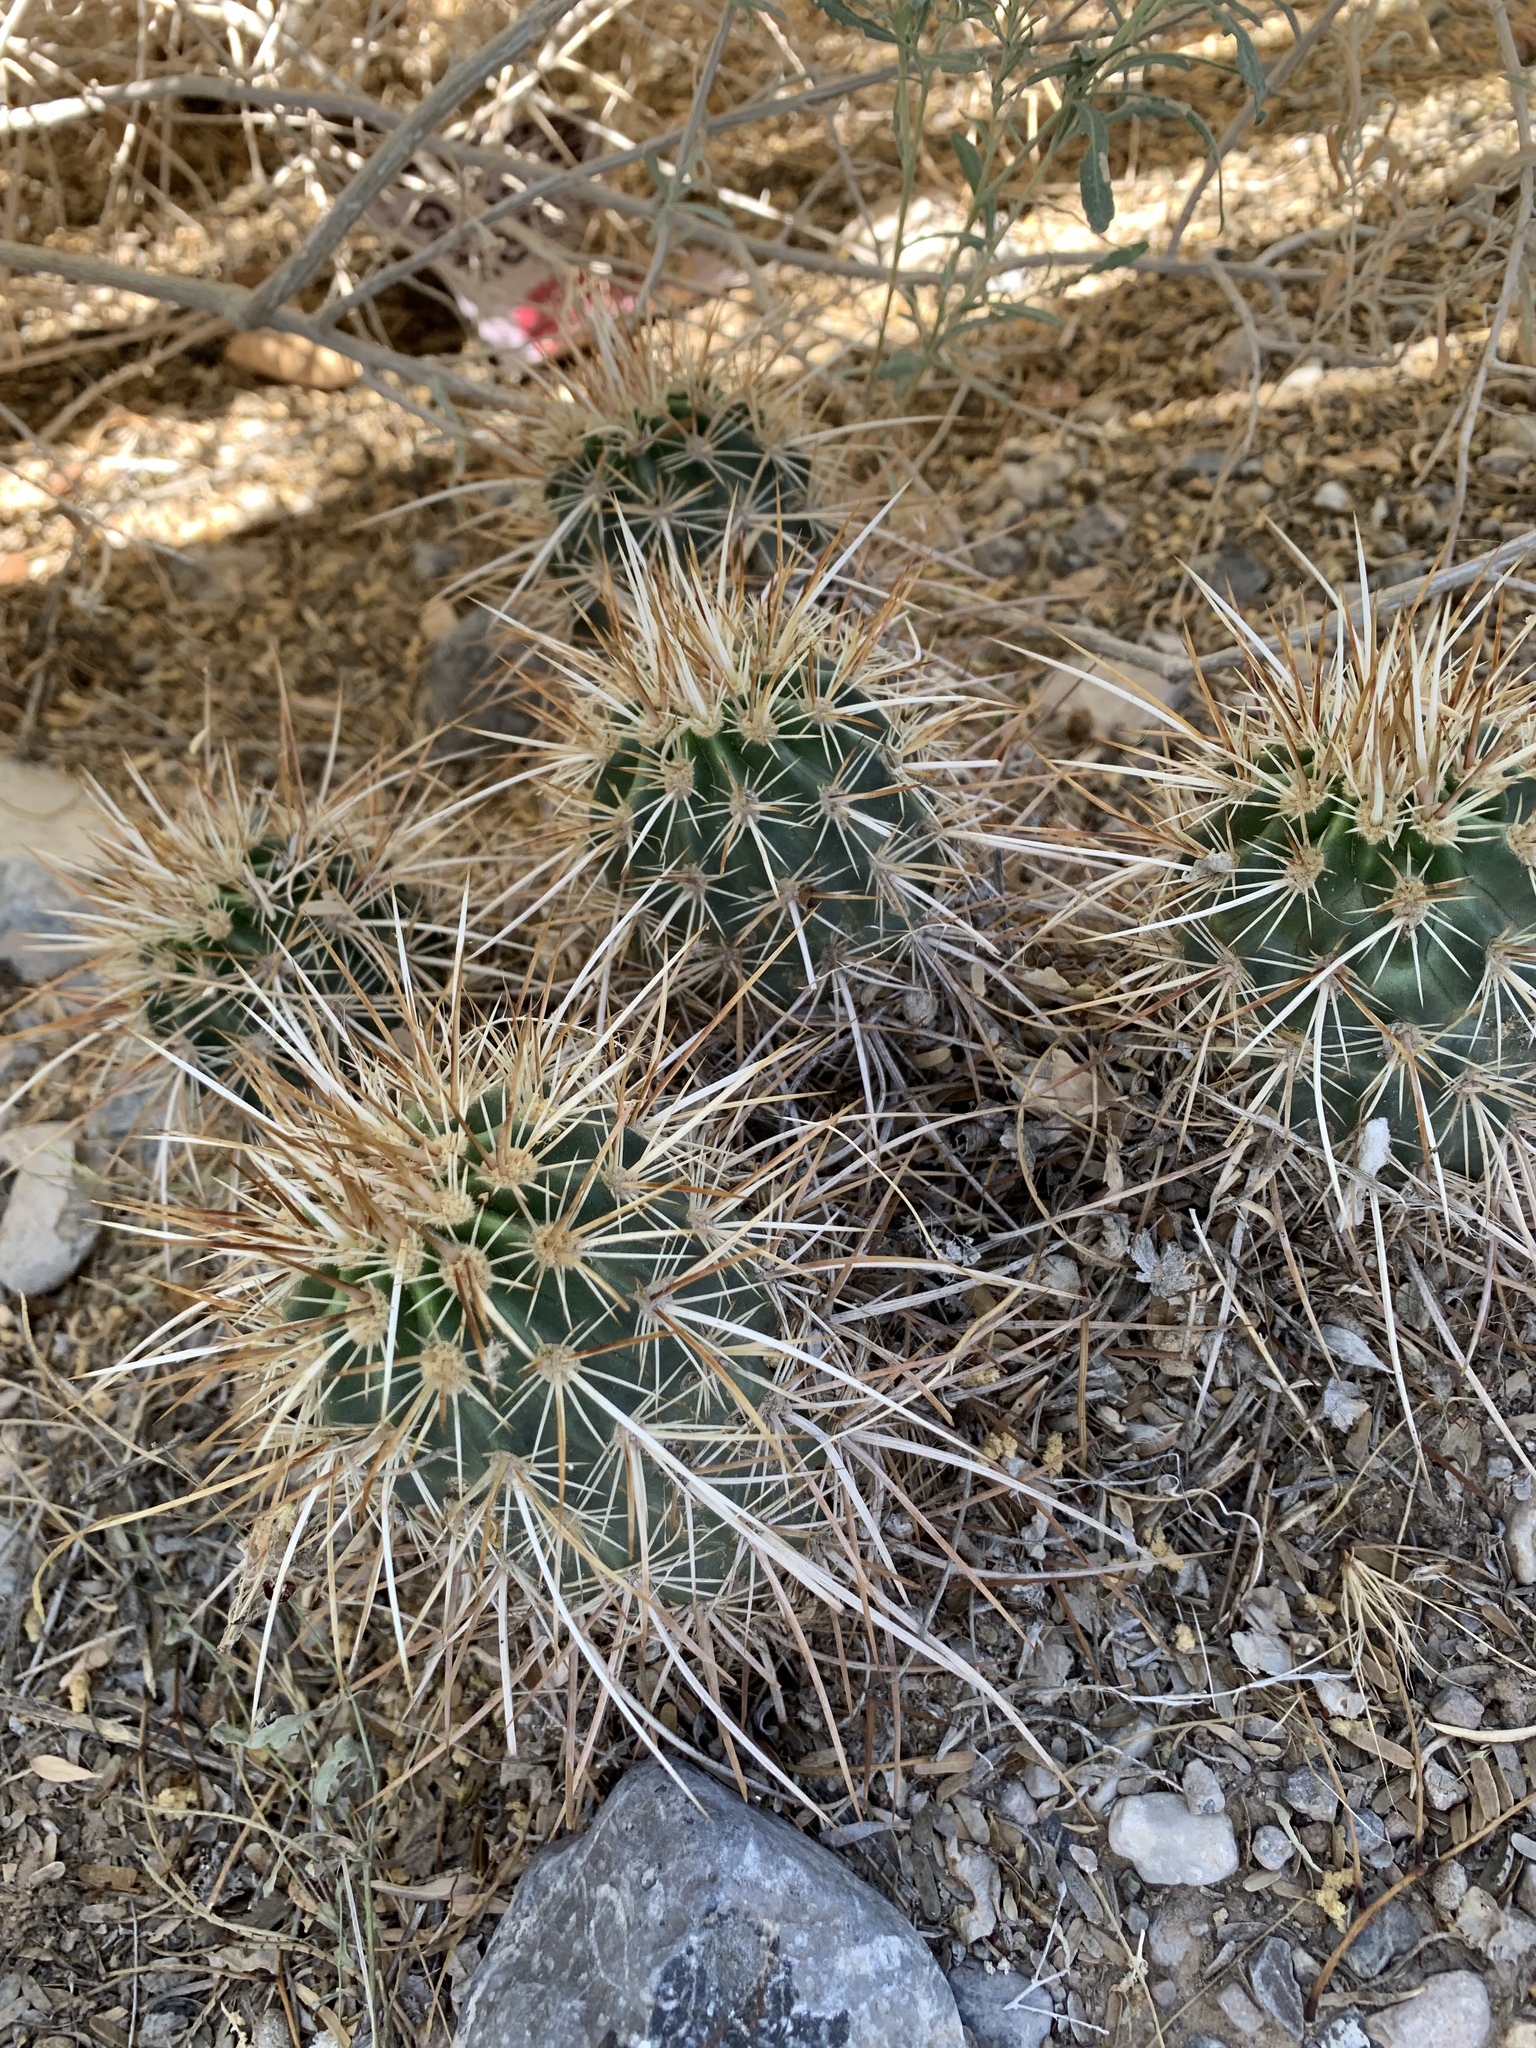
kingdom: Plantae
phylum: Tracheophyta
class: Magnoliopsida
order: Caryophyllales
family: Cactaceae
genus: Echinocereus
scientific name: Echinocereus engelmannii
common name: Engelmann's hedgehog cactus
